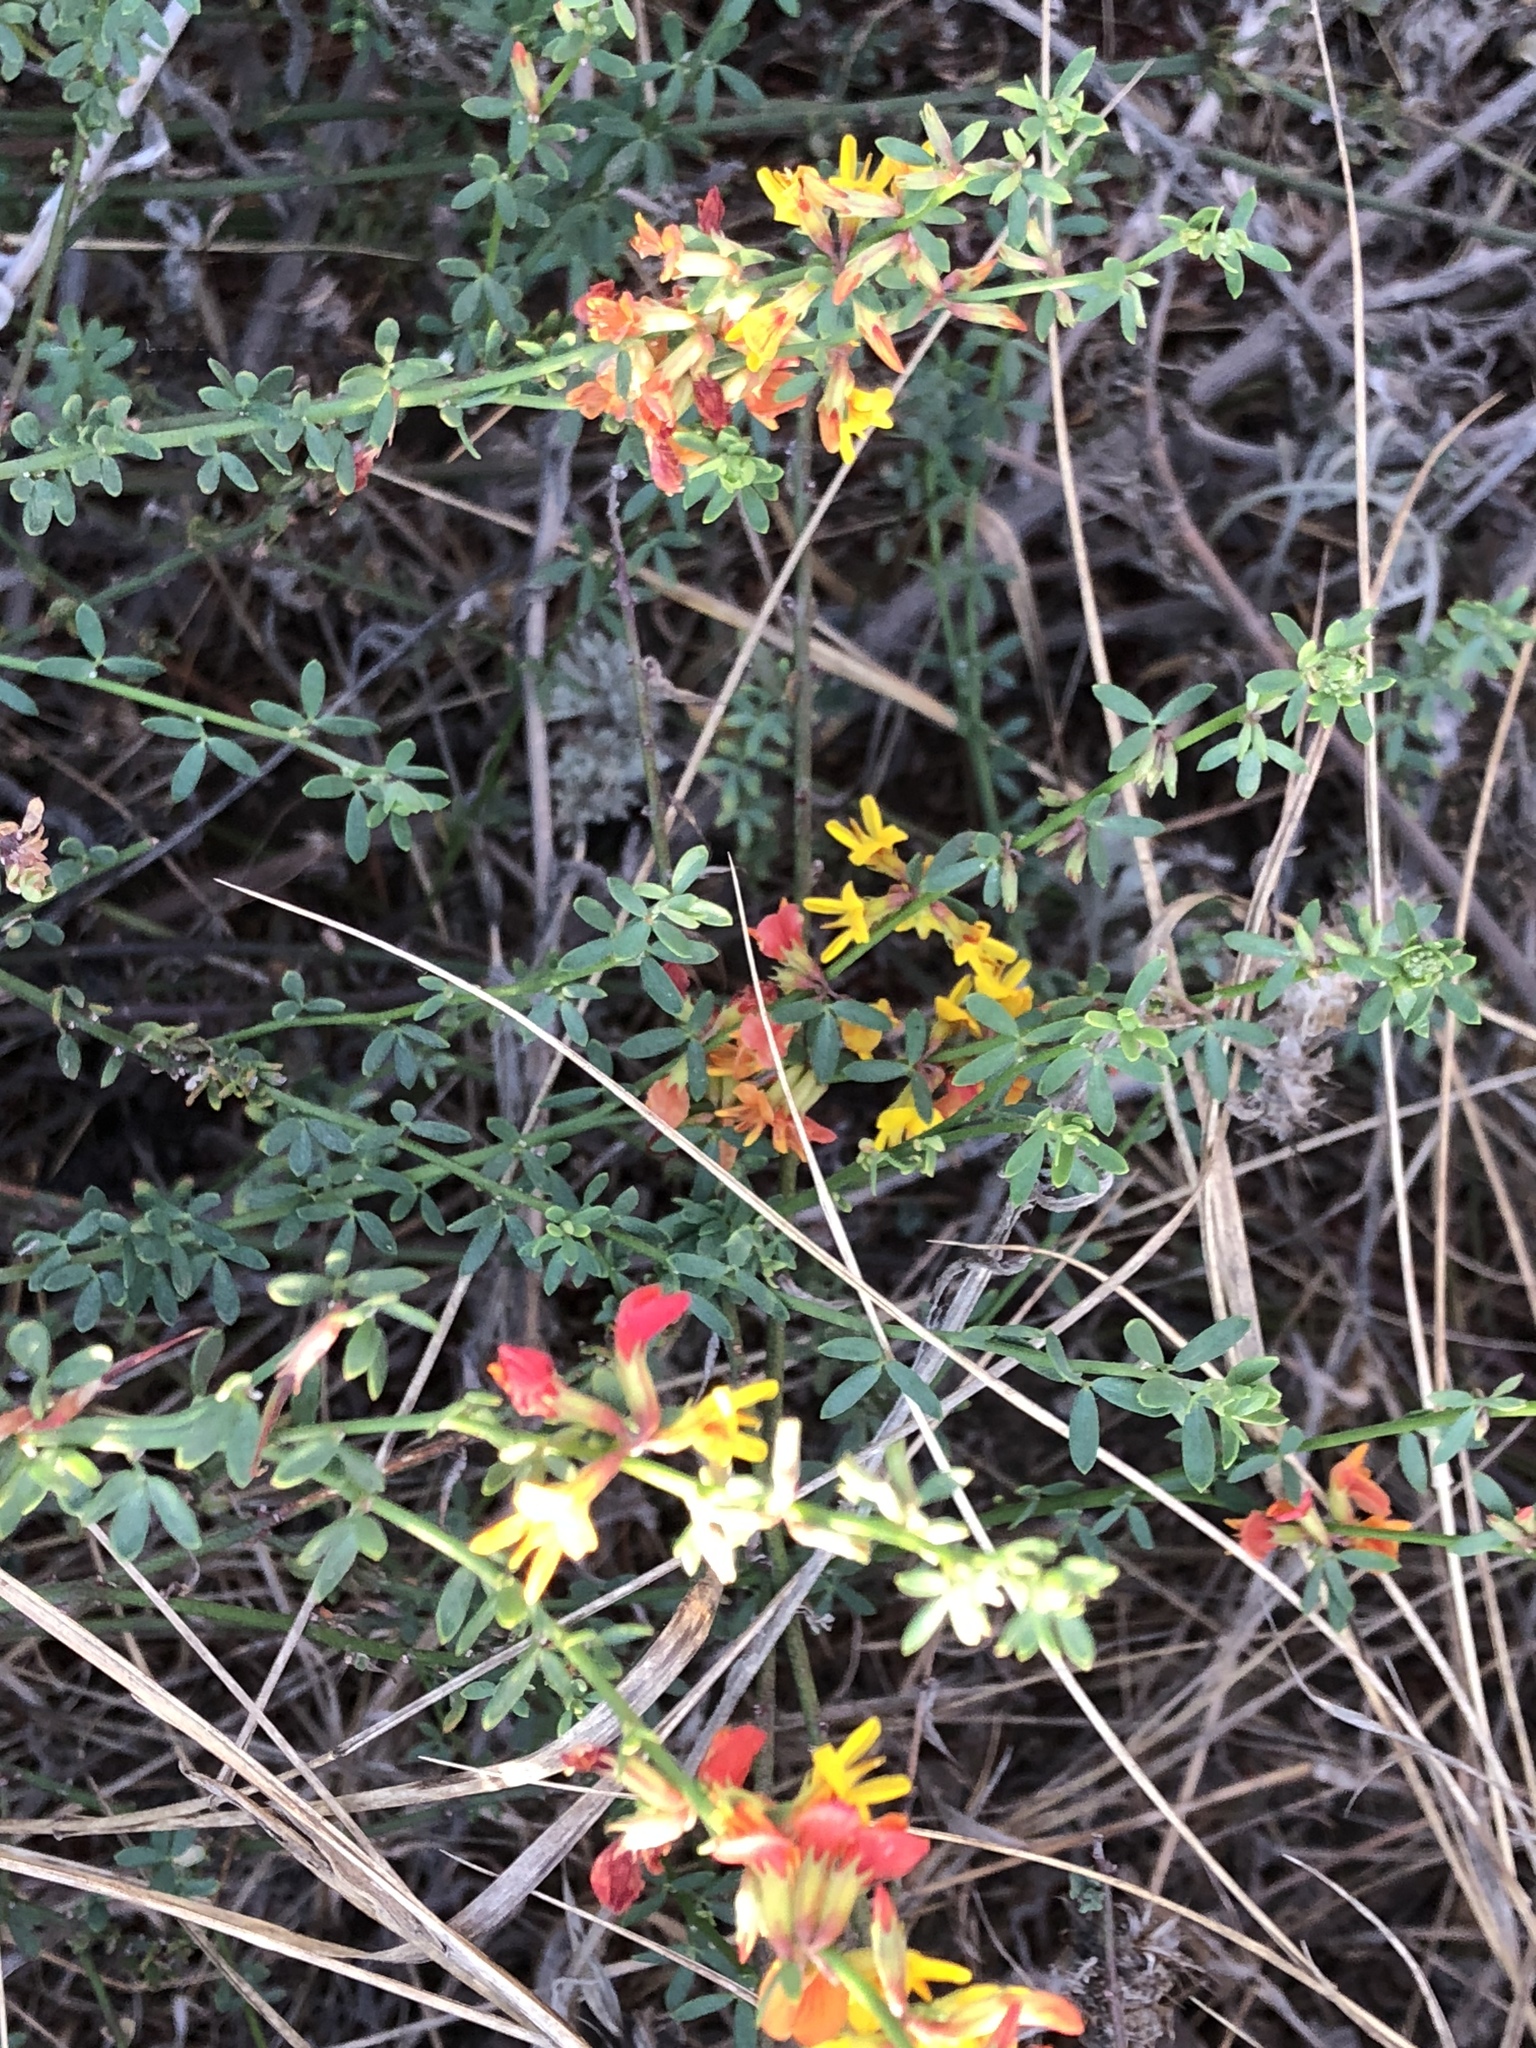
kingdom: Plantae
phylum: Tracheophyta
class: Magnoliopsida
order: Fabales
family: Fabaceae
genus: Acmispon
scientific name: Acmispon glaber
